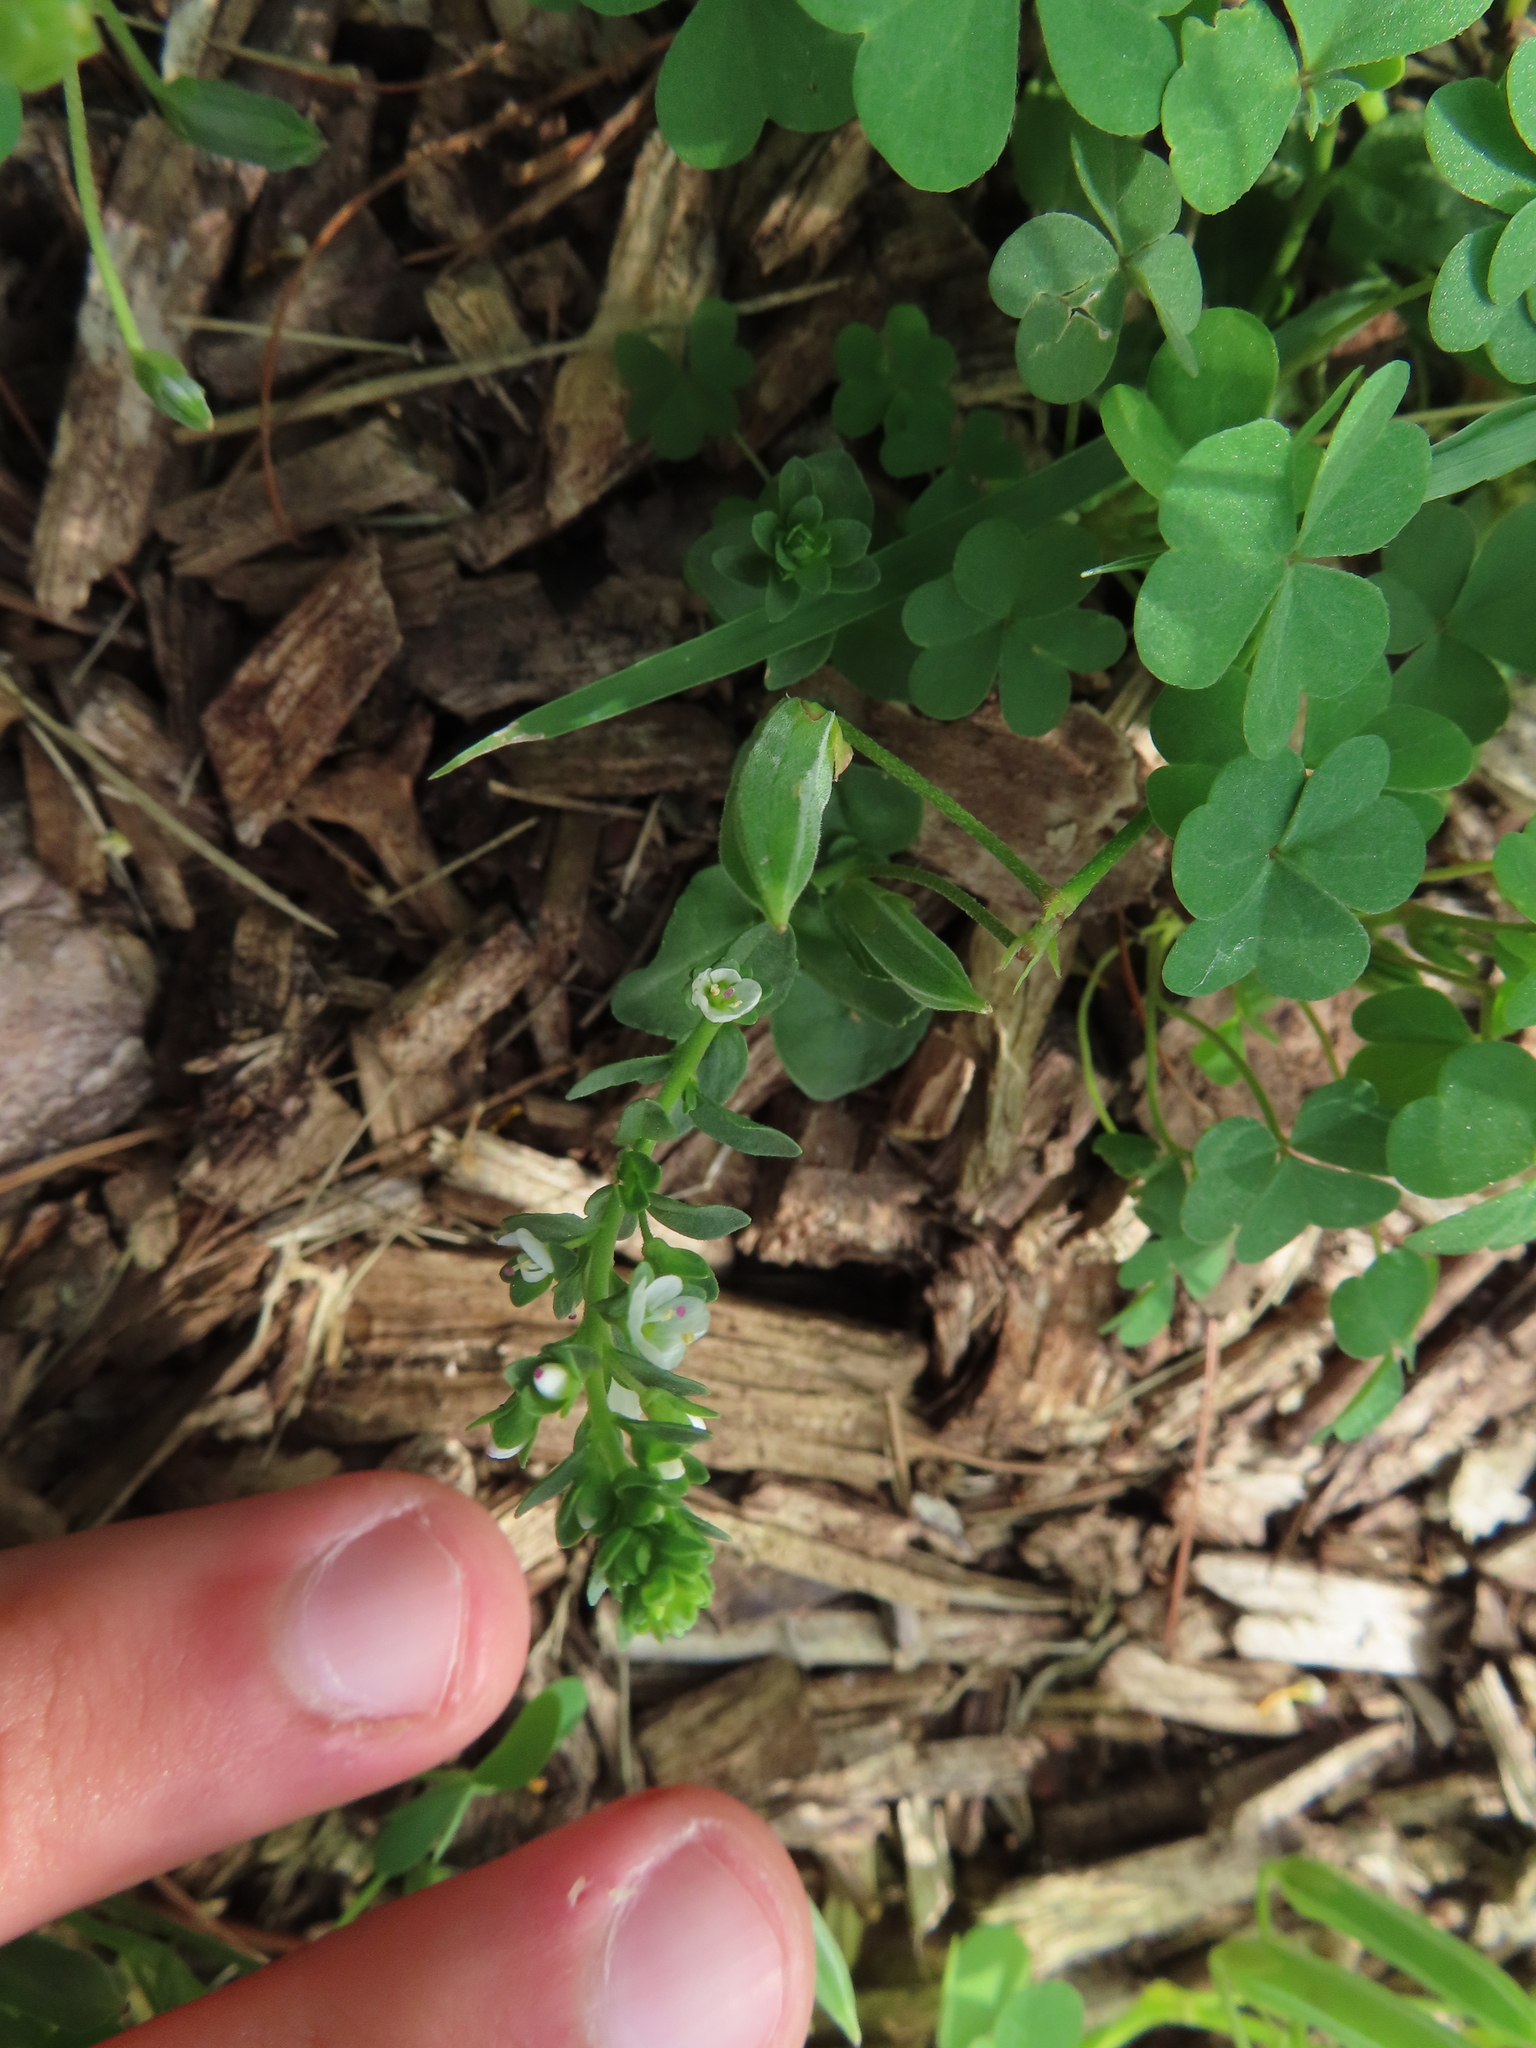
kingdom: Plantae
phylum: Tracheophyta
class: Magnoliopsida
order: Lamiales
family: Plantaginaceae
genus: Veronica
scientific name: Veronica serpyllifolia
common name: Thyme-leaved speedwell
